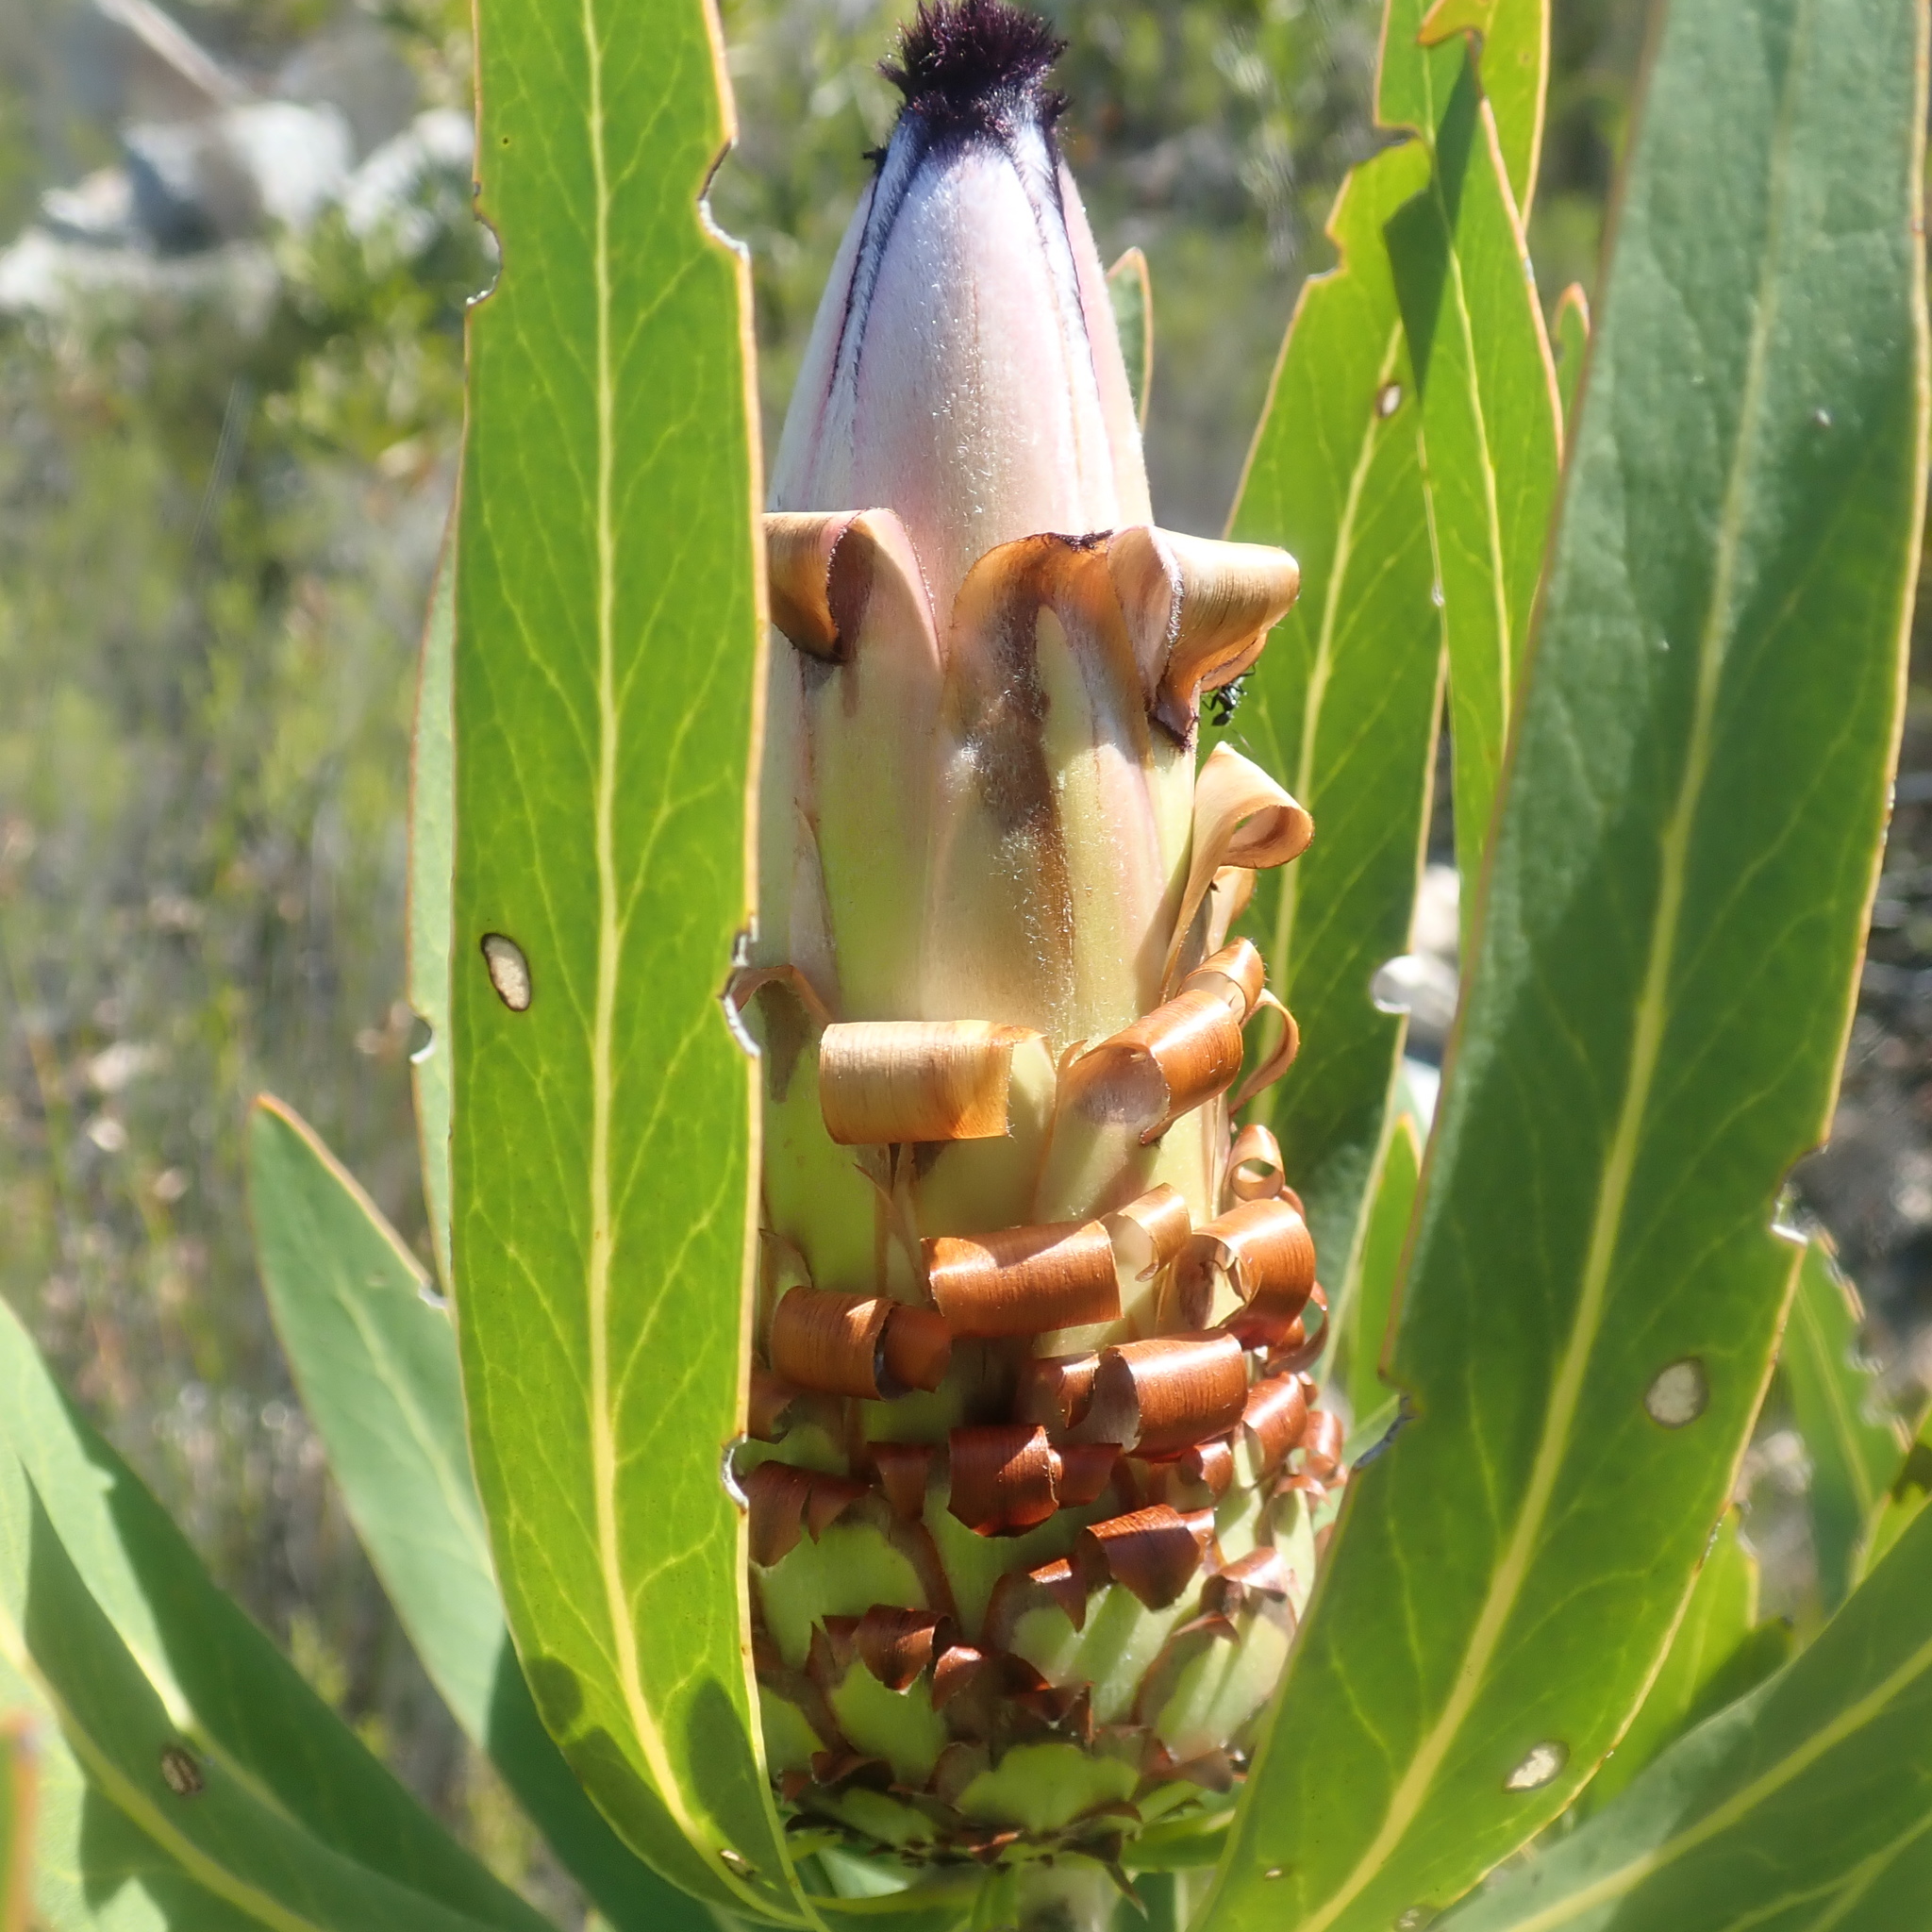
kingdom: Plantae
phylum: Tracheophyta
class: Magnoliopsida
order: Proteales
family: Proteaceae
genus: Protea
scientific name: Protea neriifolia
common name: Blue sugarbush
